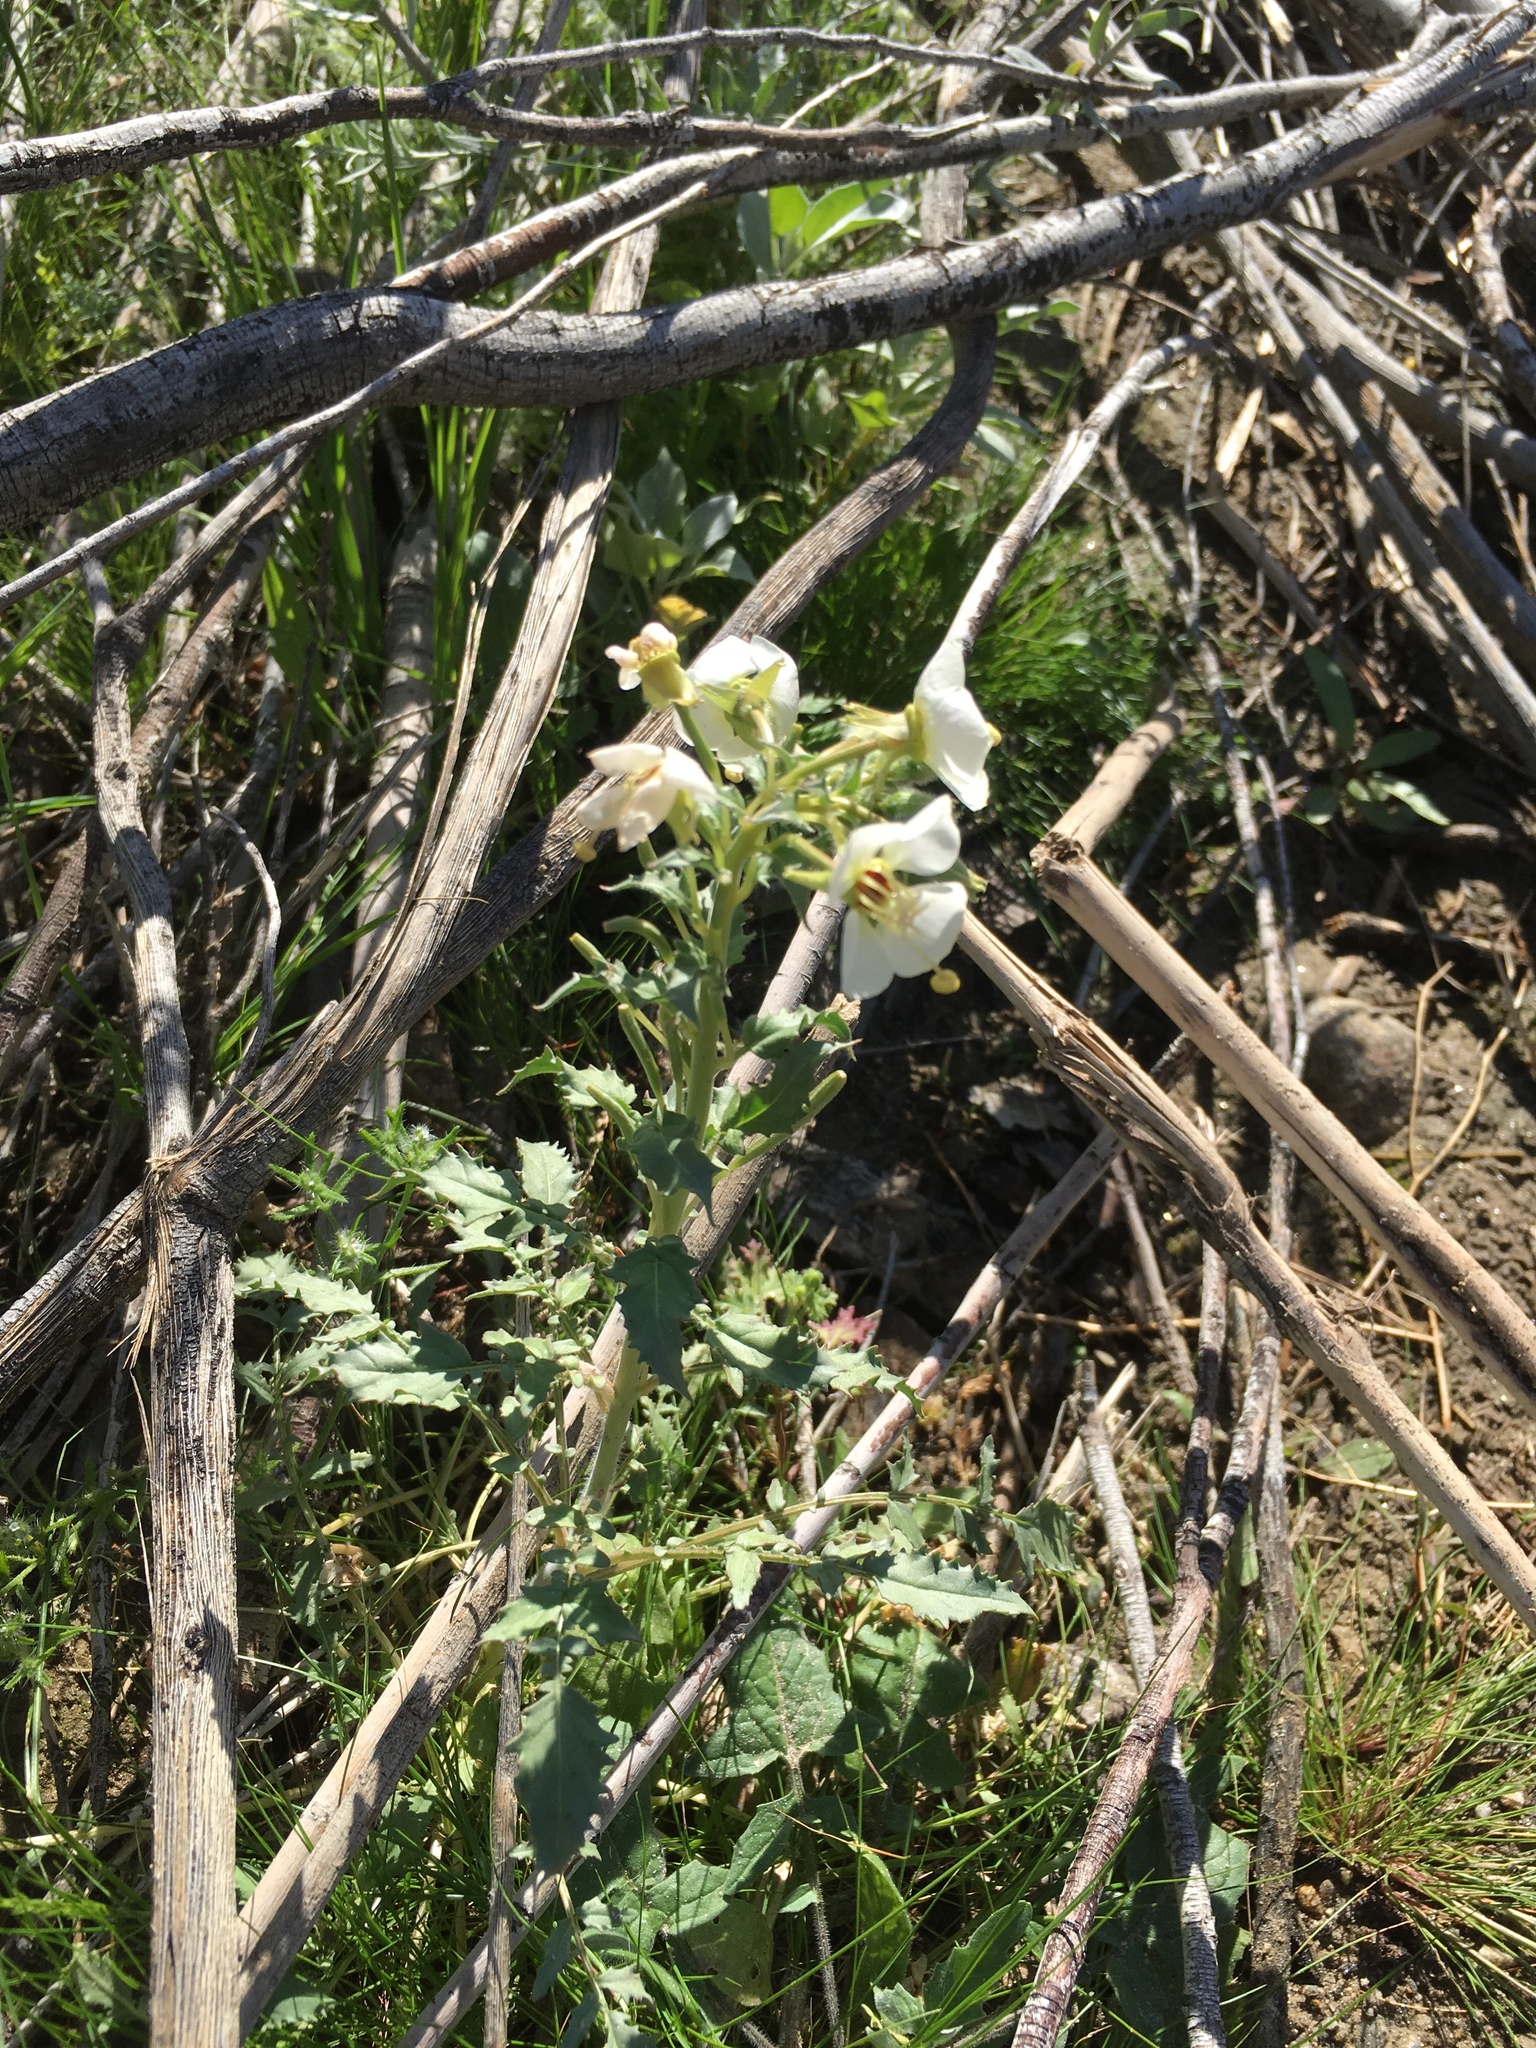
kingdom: Plantae
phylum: Tracheophyta
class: Magnoliopsida
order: Myrtales
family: Onagraceae
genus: Chylismia
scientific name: Chylismia claviformis
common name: Browneyes
